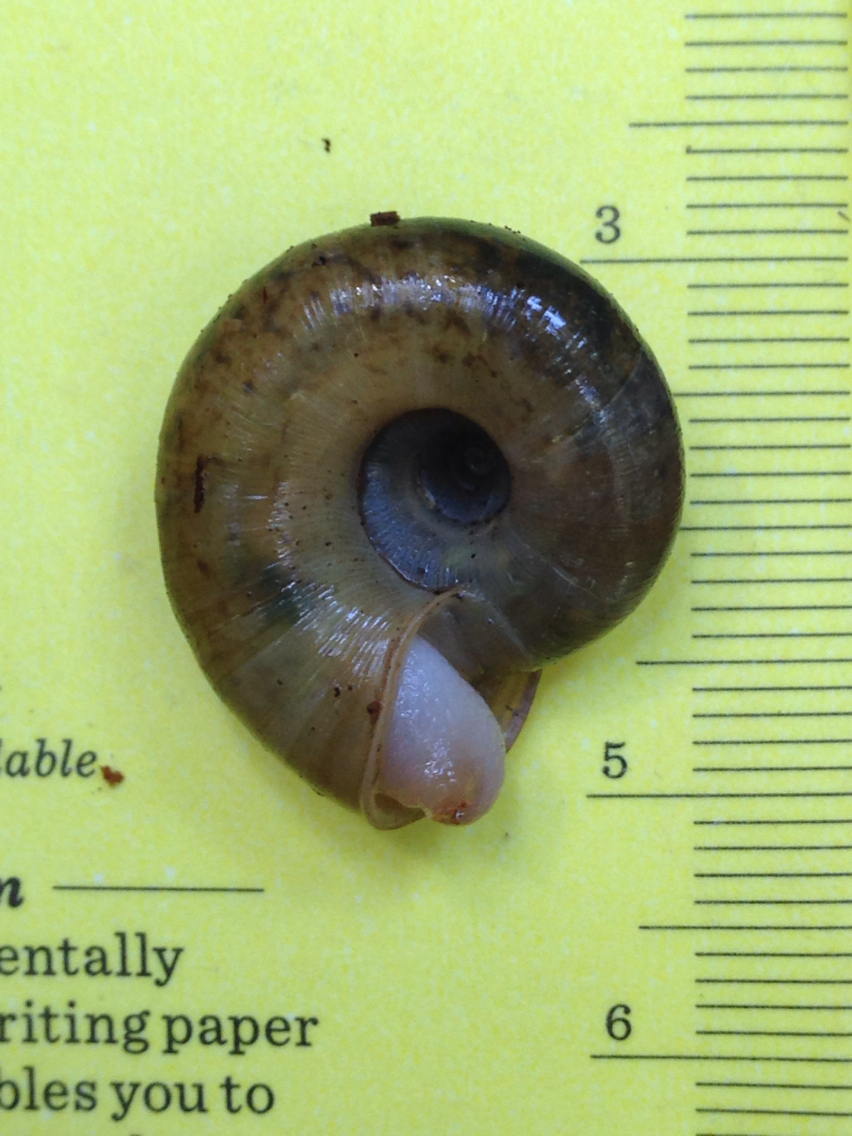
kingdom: Animalia
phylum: Mollusca
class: Gastropoda
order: Stylommatophora
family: Haplotrematidae
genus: Haplotrema
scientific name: Haplotrema minimum
